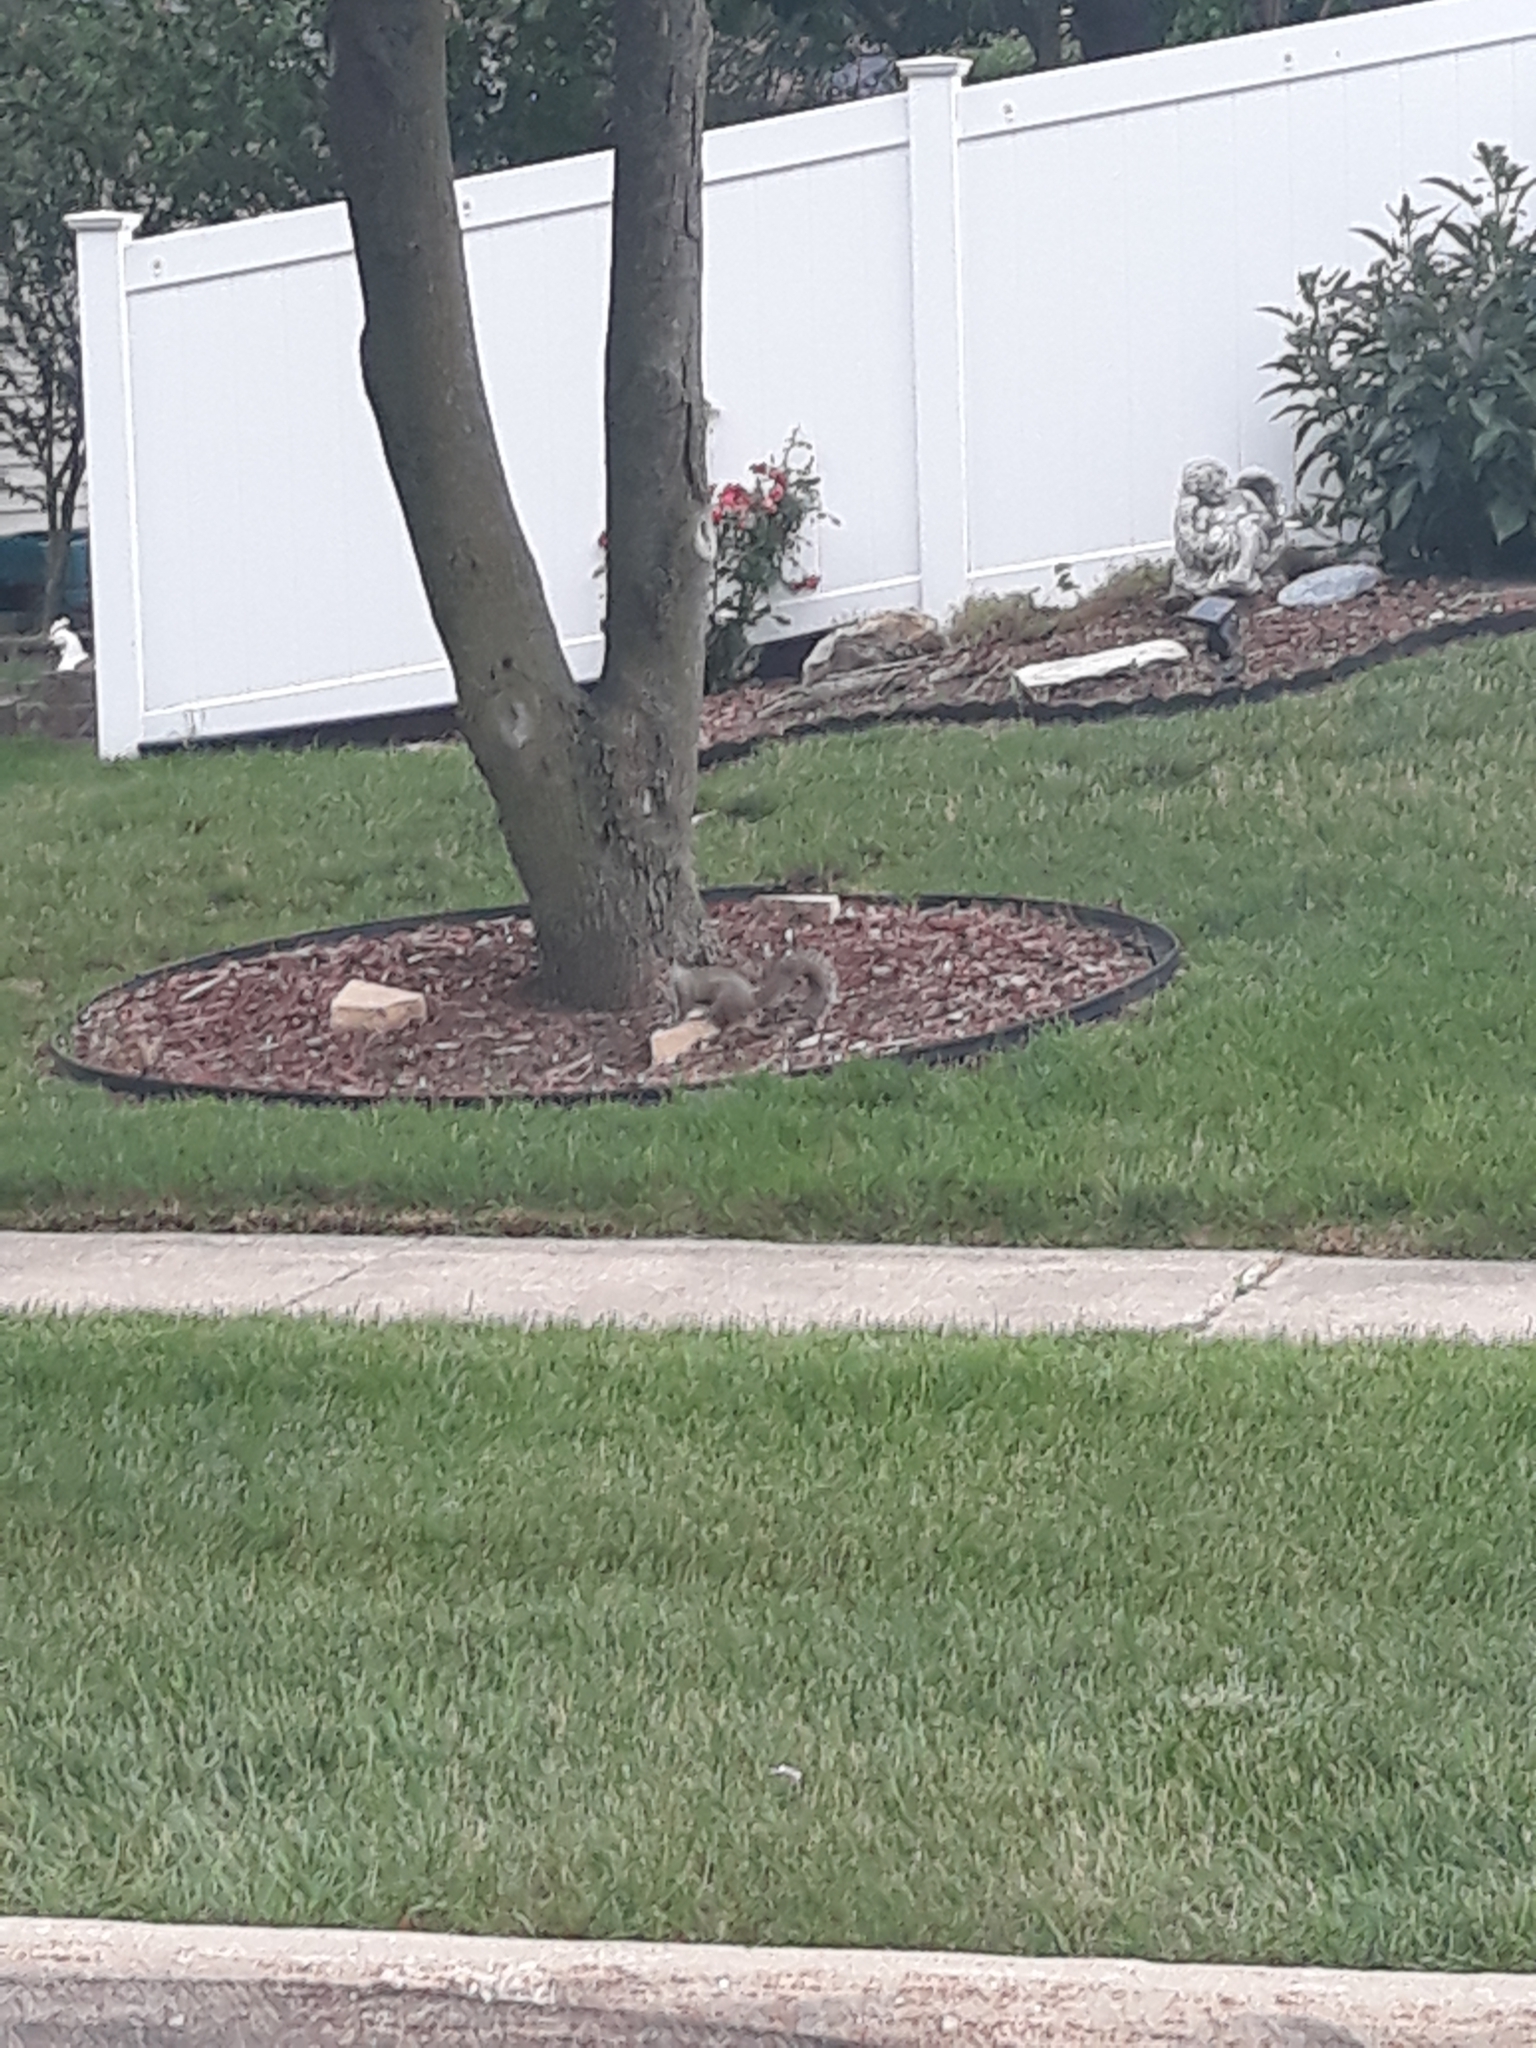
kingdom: Animalia
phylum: Chordata
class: Mammalia
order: Rodentia
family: Sciuridae
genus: Sciurus
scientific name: Sciurus carolinensis
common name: Eastern gray squirrel
